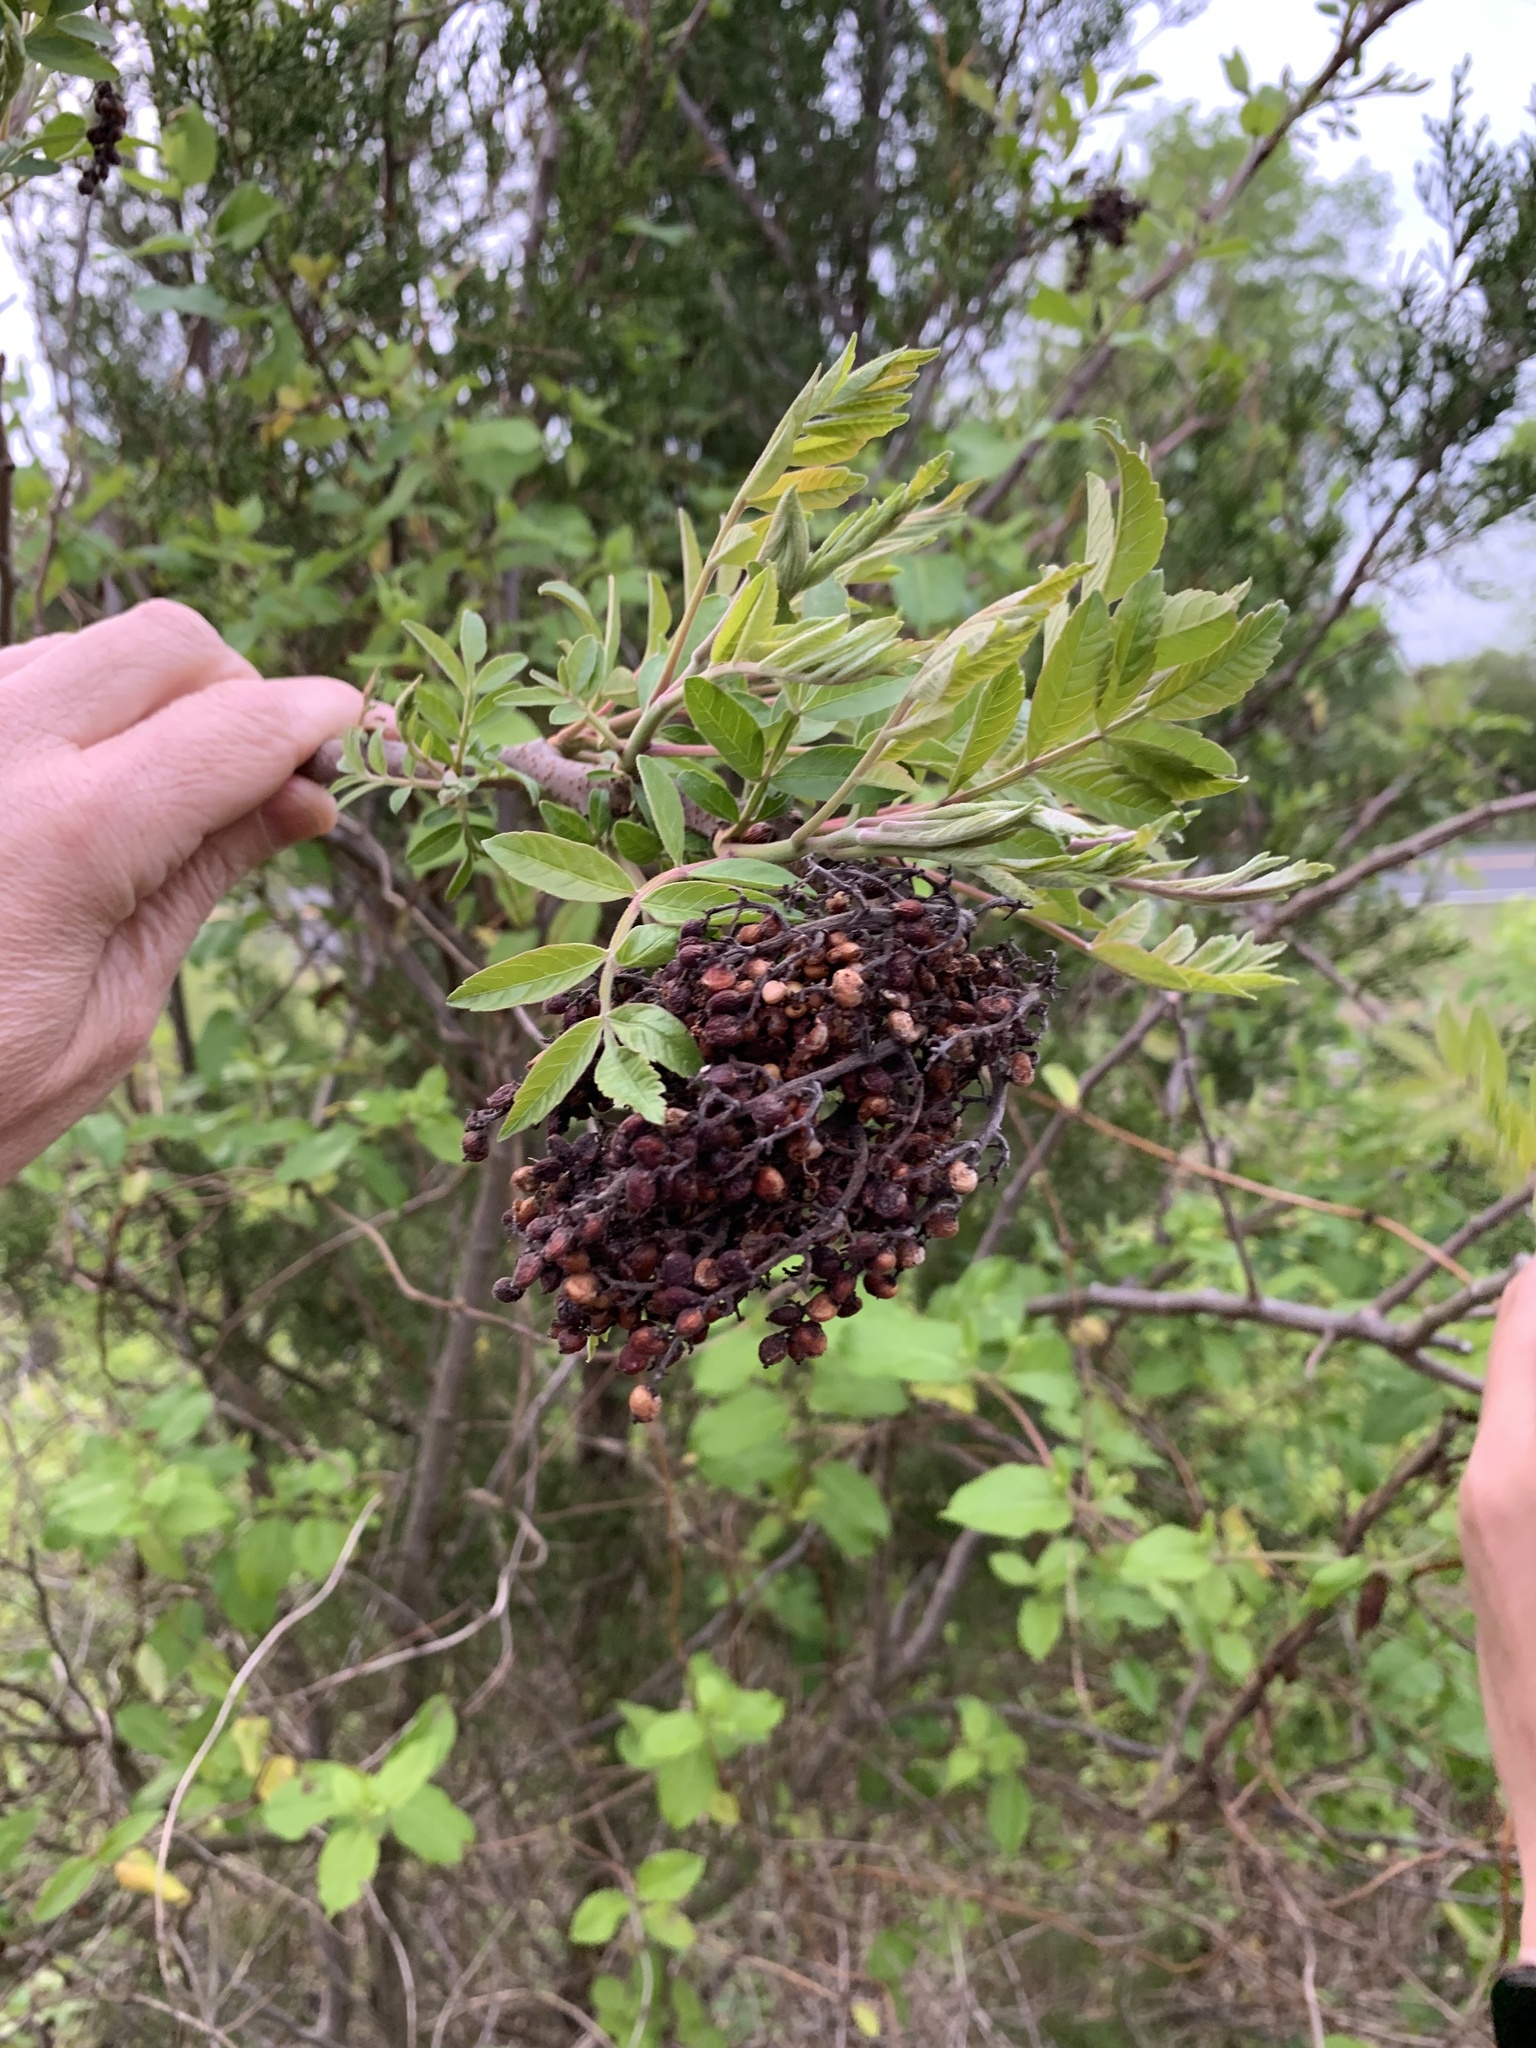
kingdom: Plantae
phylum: Tracheophyta
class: Magnoliopsida
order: Sapindales
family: Anacardiaceae
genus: Rhus
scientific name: Rhus copallina
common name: Shining sumac
